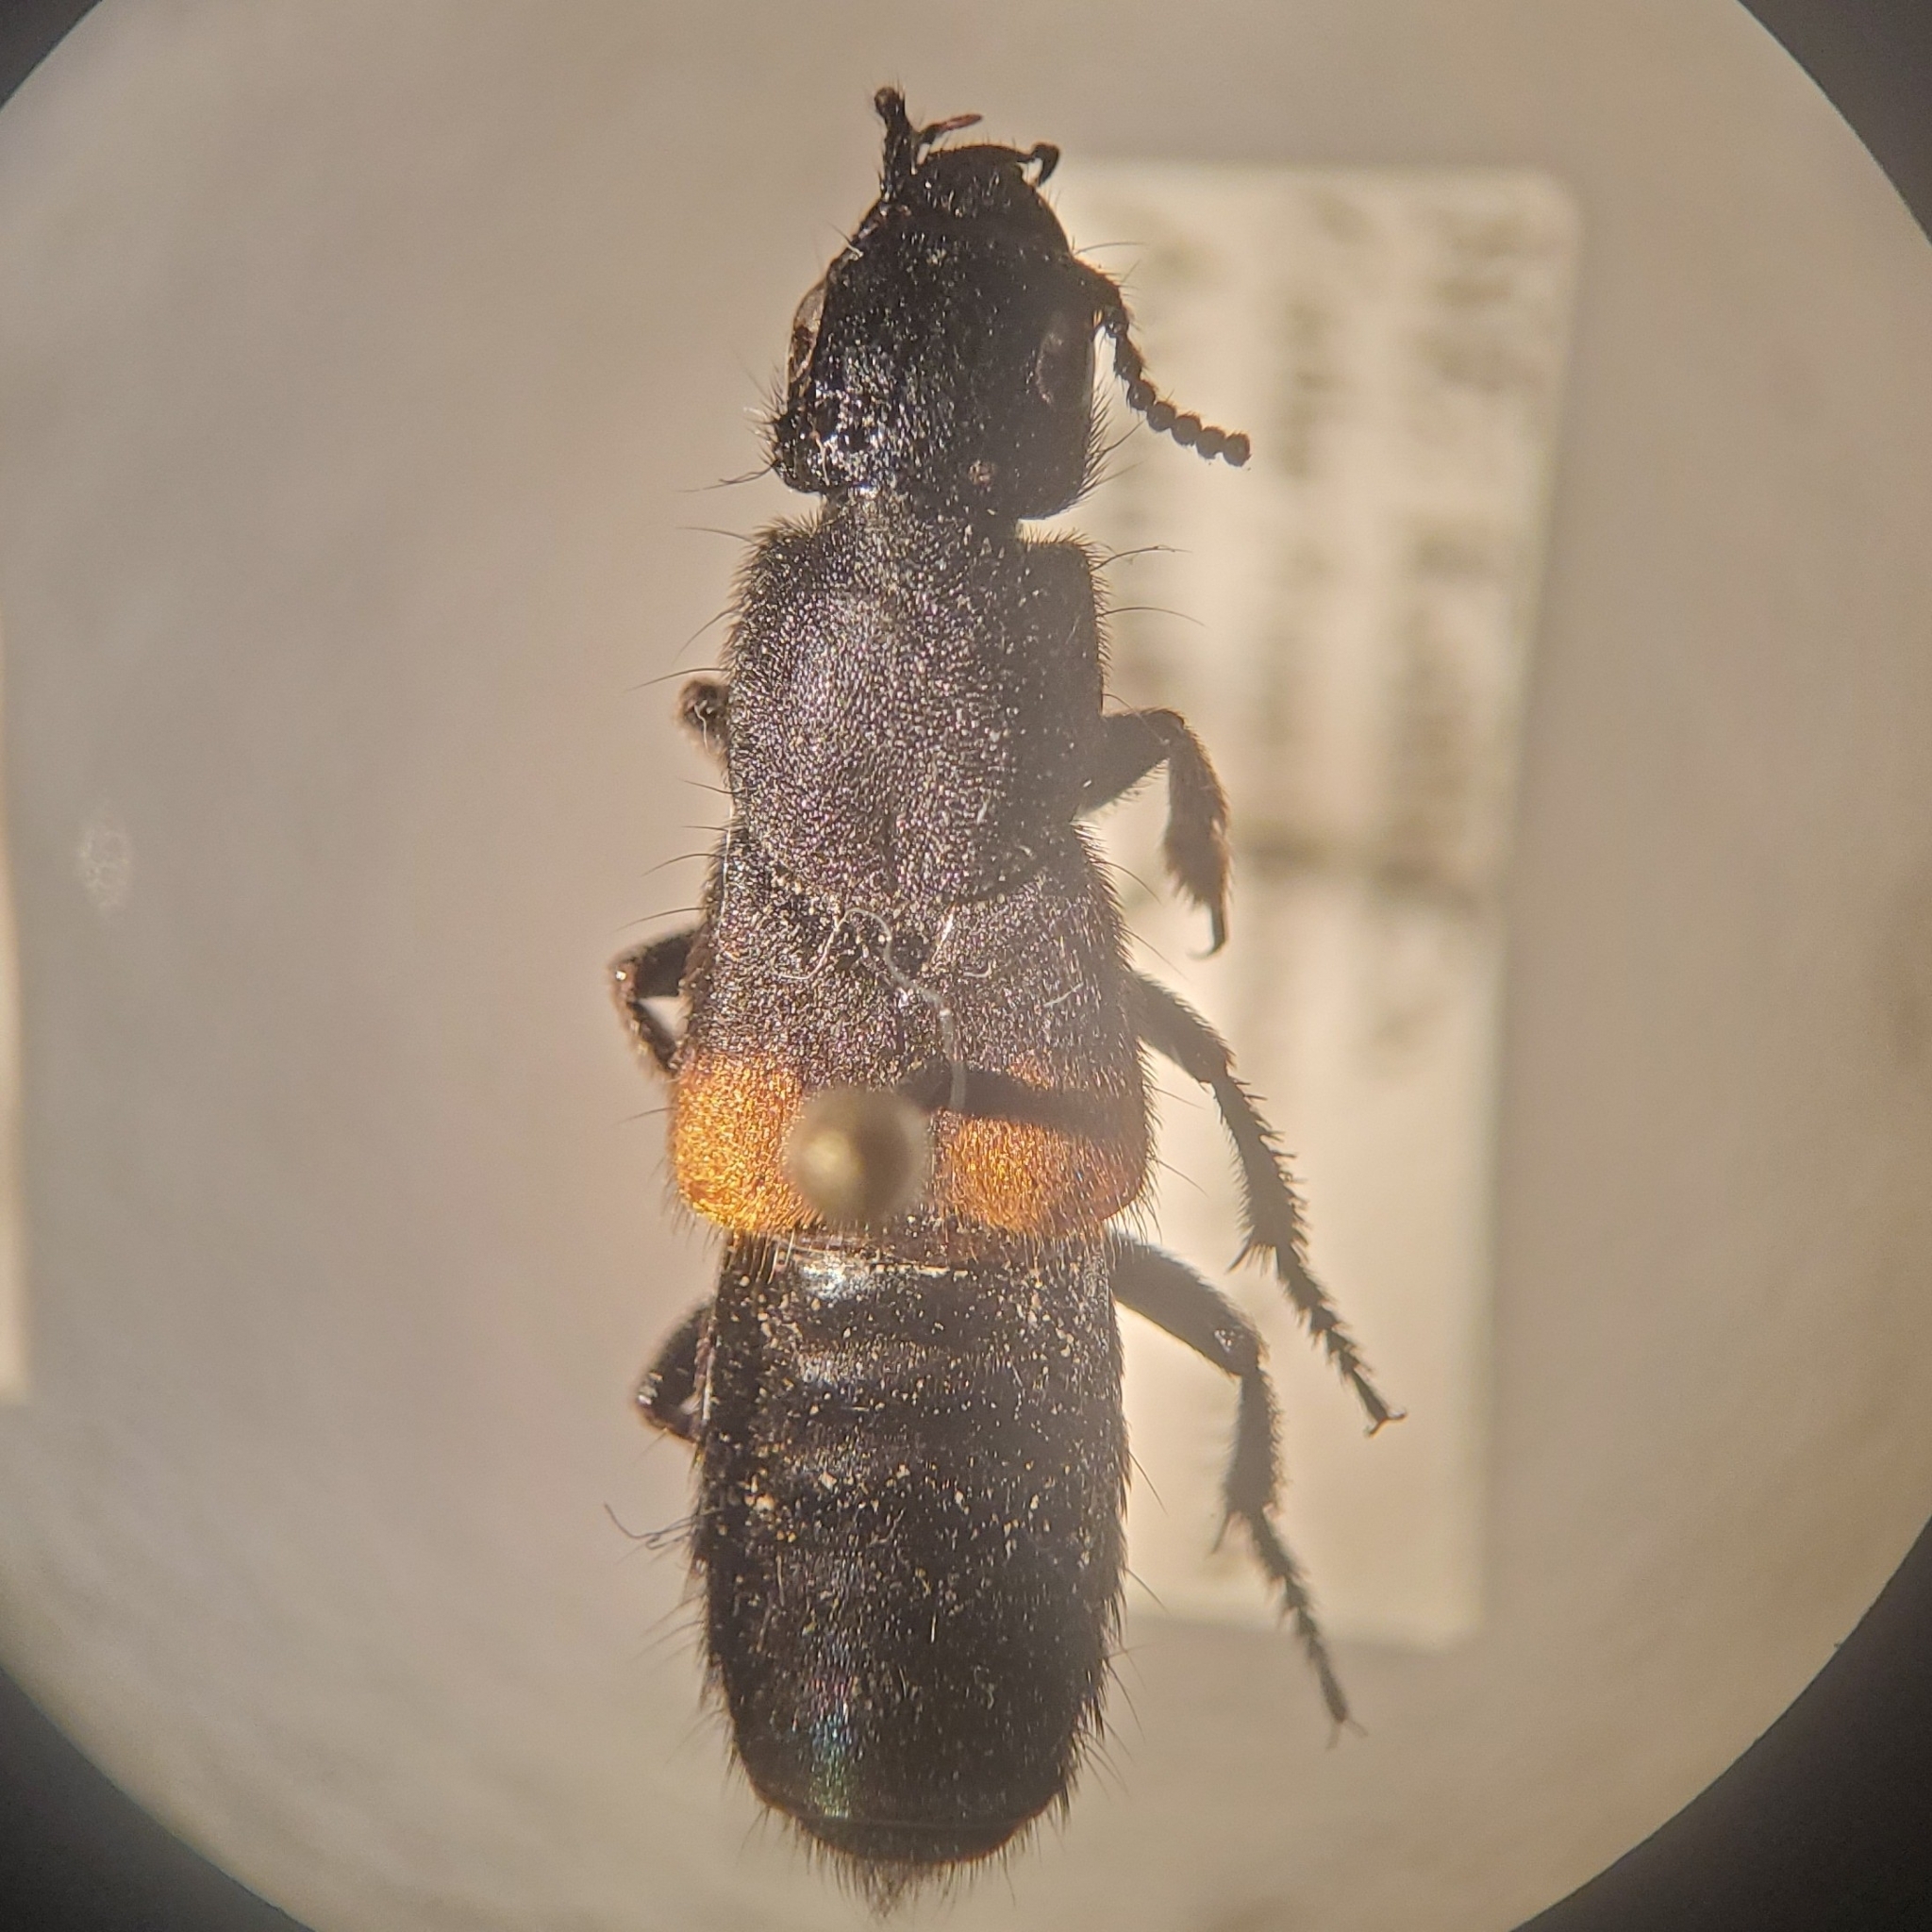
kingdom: Animalia
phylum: Arthropoda
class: Insecta
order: Coleoptera
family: Staphylinidae
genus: Platydracus
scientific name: Platydracus fossator
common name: Red-spotted rove beetle
